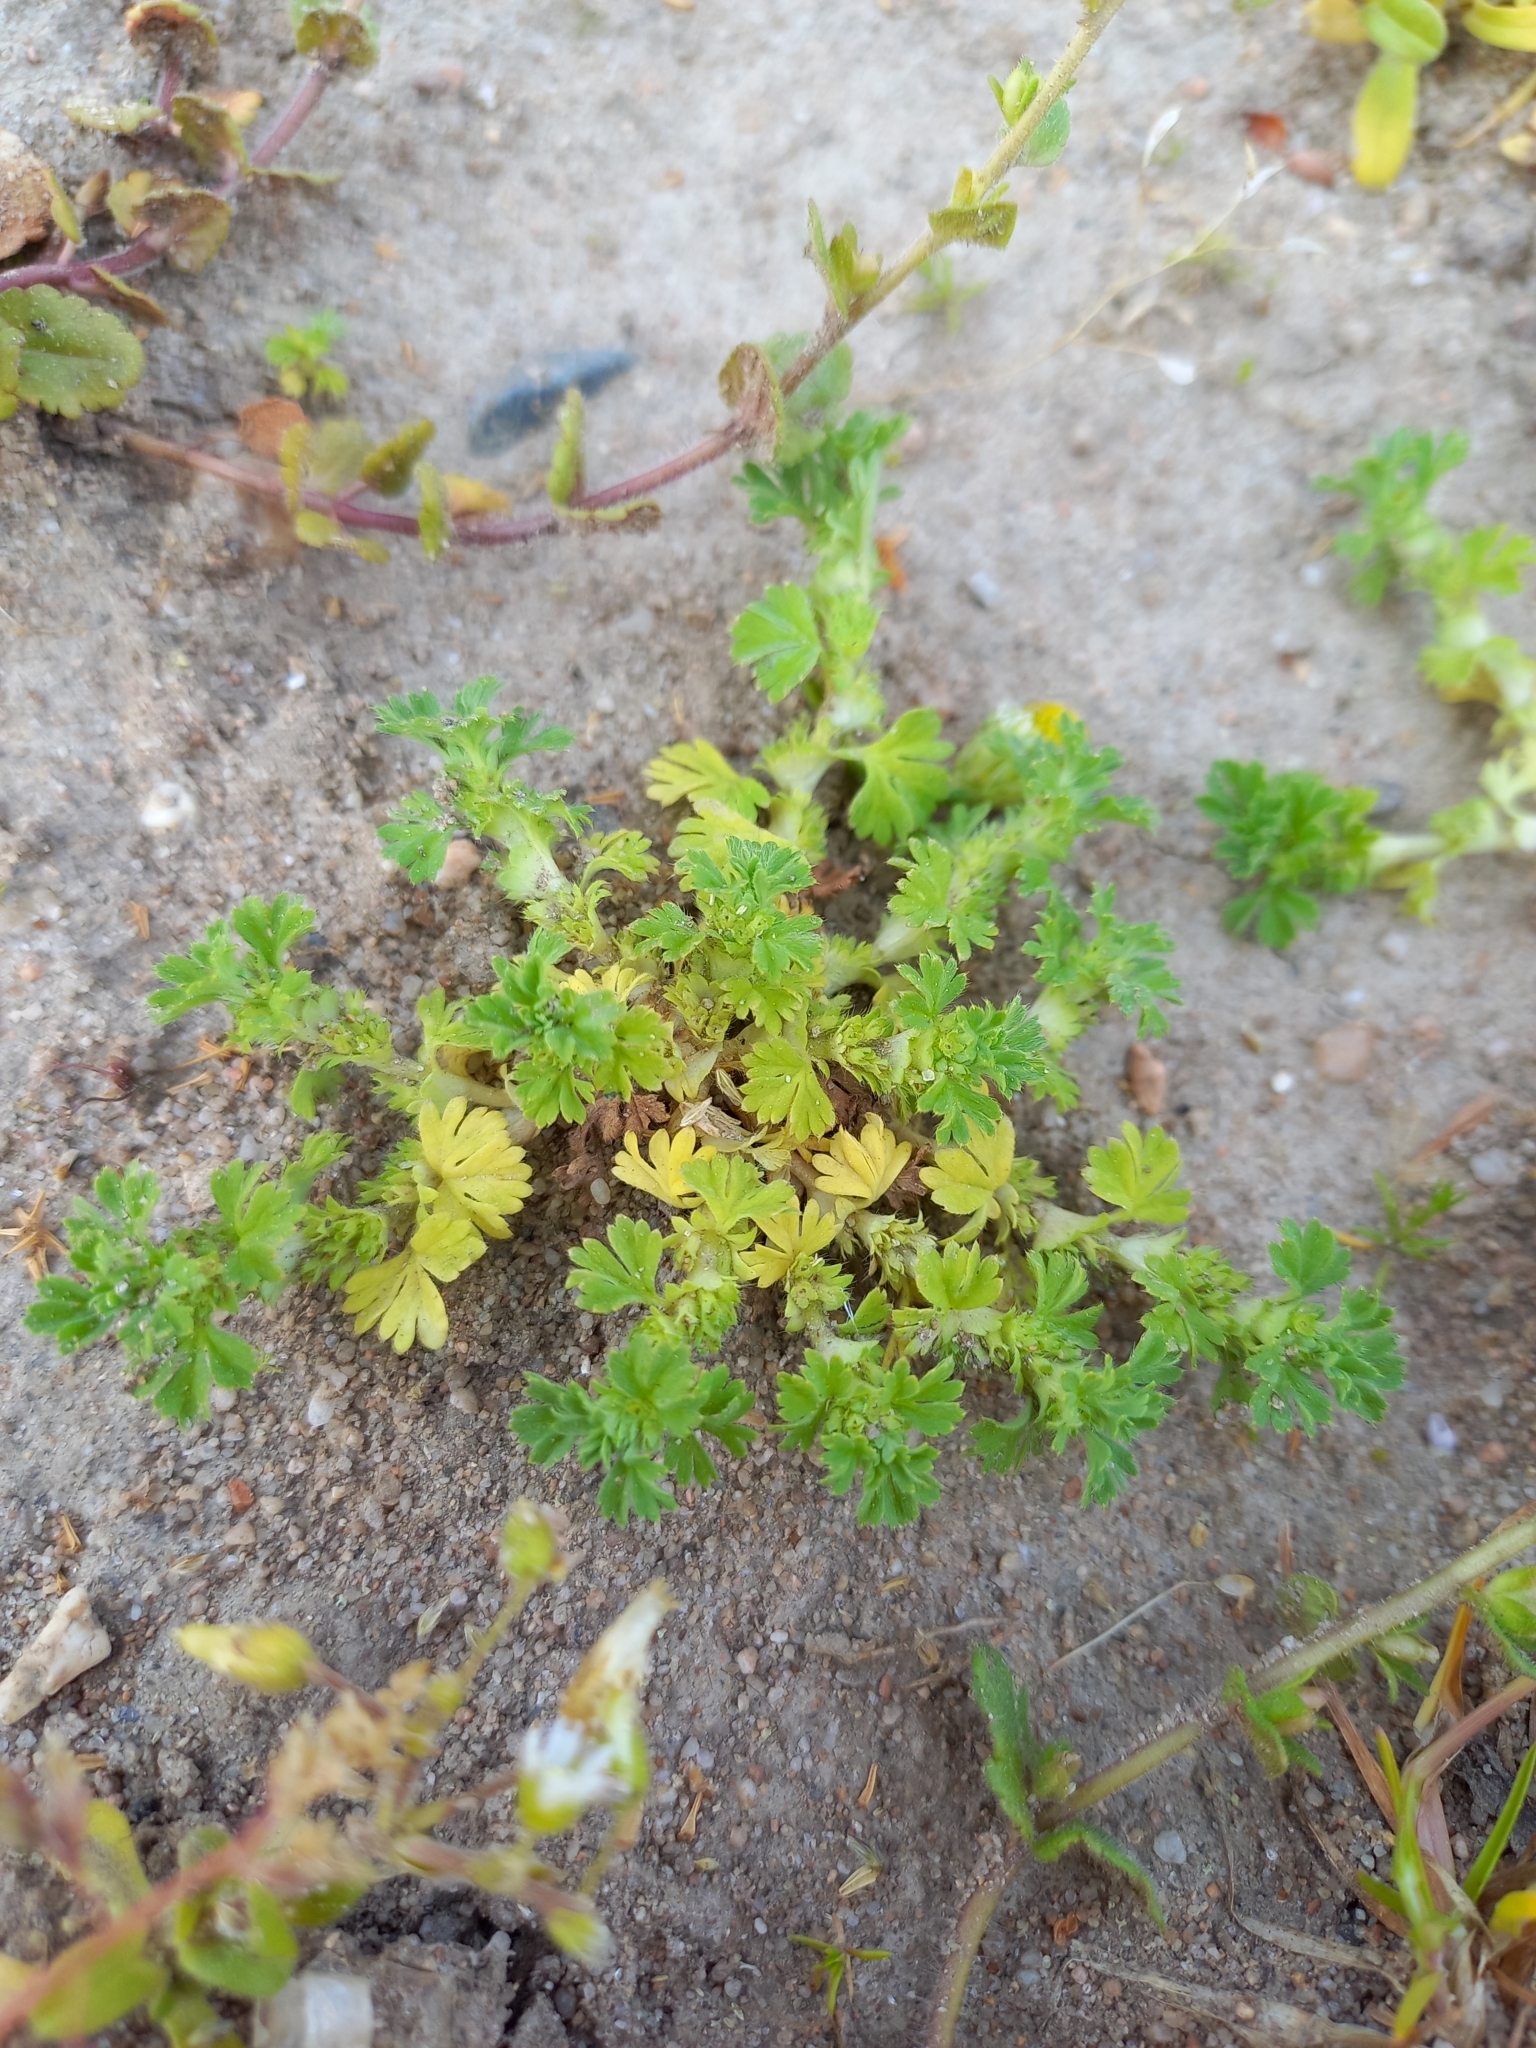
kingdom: Plantae
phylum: Tracheophyta
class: Magnoliopsida
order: Rosales
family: Rosaceae
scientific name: Rosaceae
